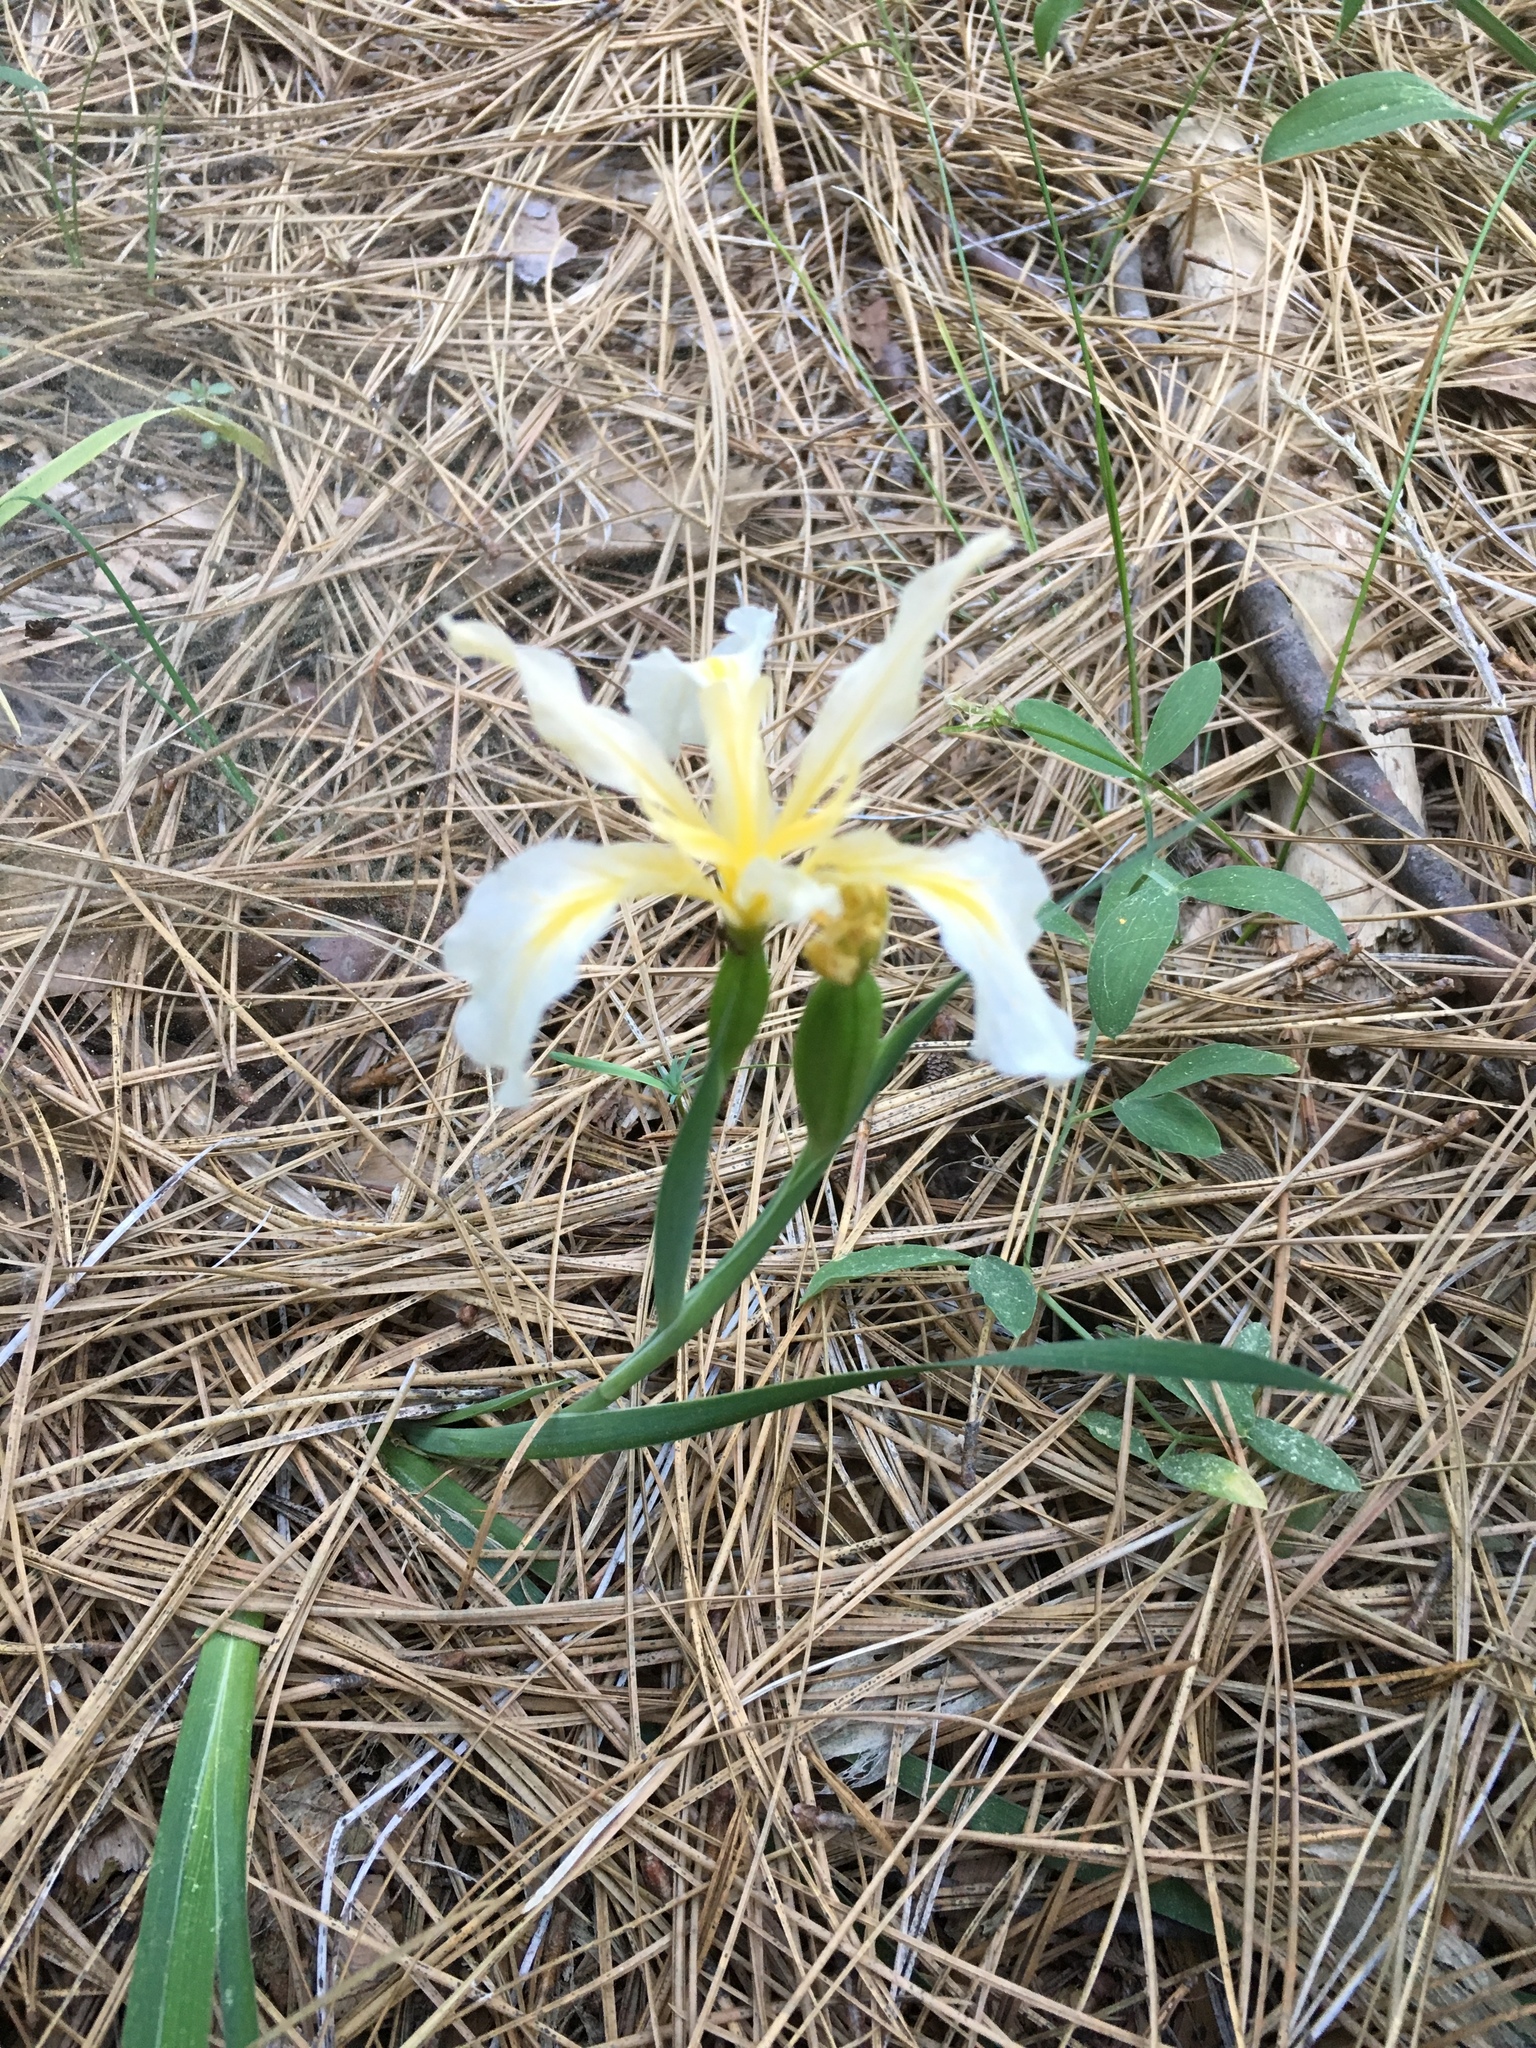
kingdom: Plantae
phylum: Tracheophyta
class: Liliopsida
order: Asparagales
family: Iridaceae
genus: Iris
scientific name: Iris hartwegii
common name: Sierra iris
